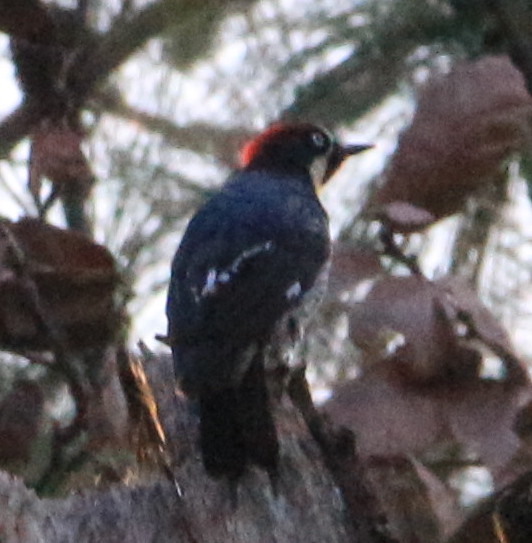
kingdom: Animalia
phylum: Chordata
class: Aves
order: Piciformes
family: Picidae
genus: Melanerpes
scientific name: Melanerpes formicivorus
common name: Acorn woodpecker
